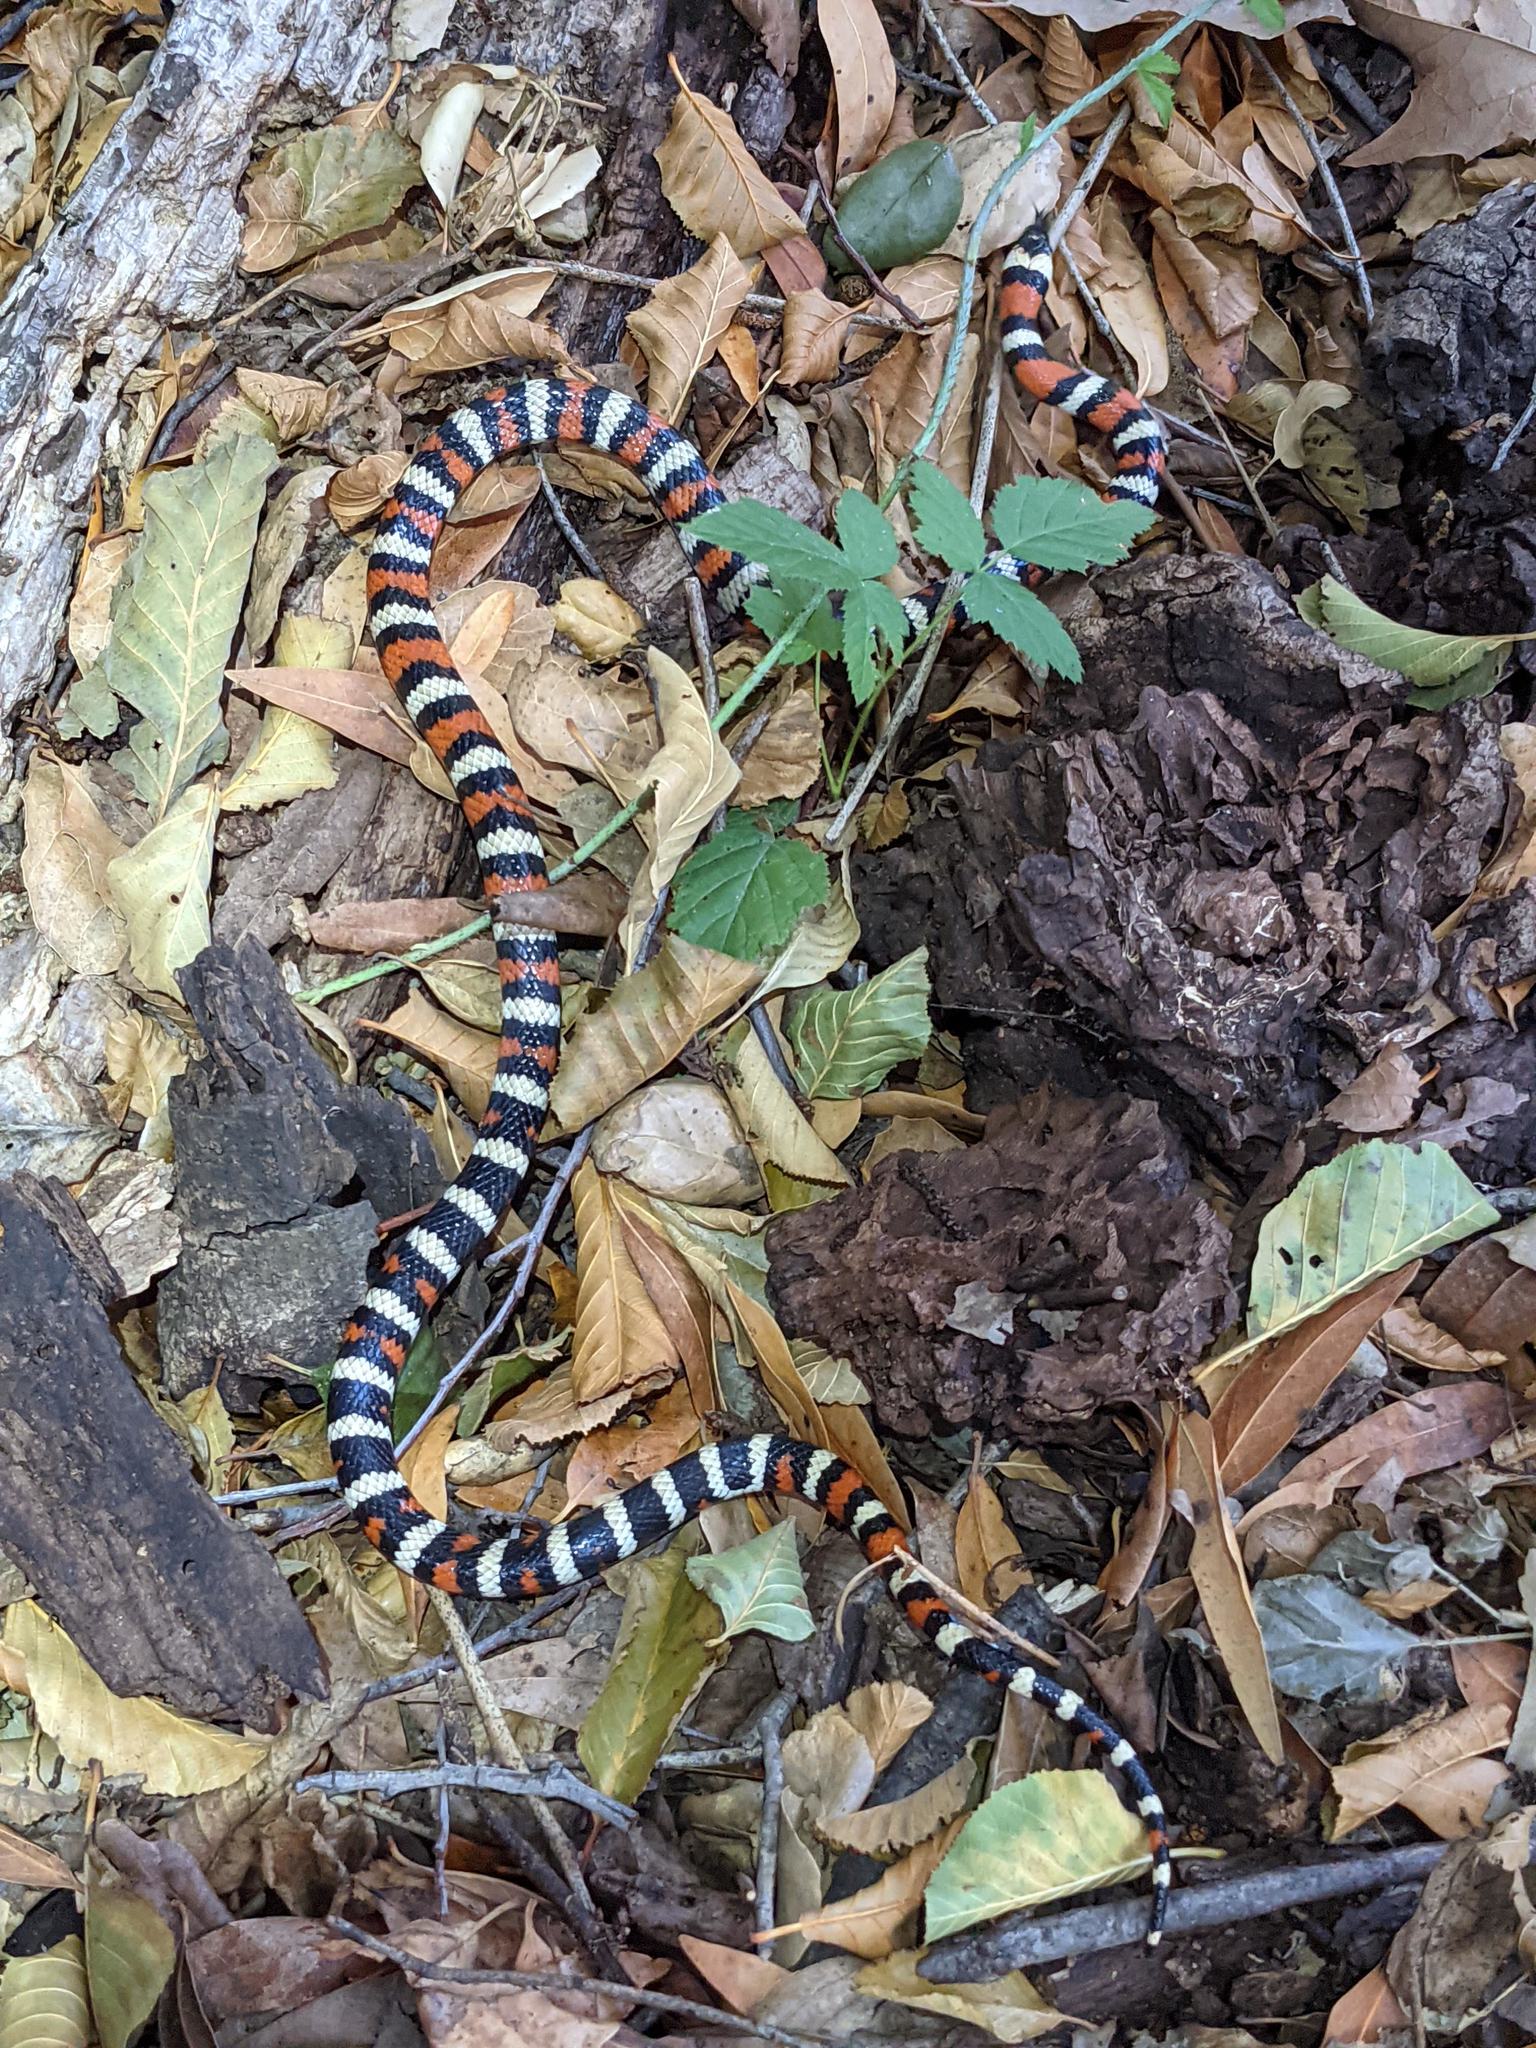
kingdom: Animalia
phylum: Chordata
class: Squamata
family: Colubridae
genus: Lampropeltis
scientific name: Lampropeltis zonata
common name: California mountain kingsnake
